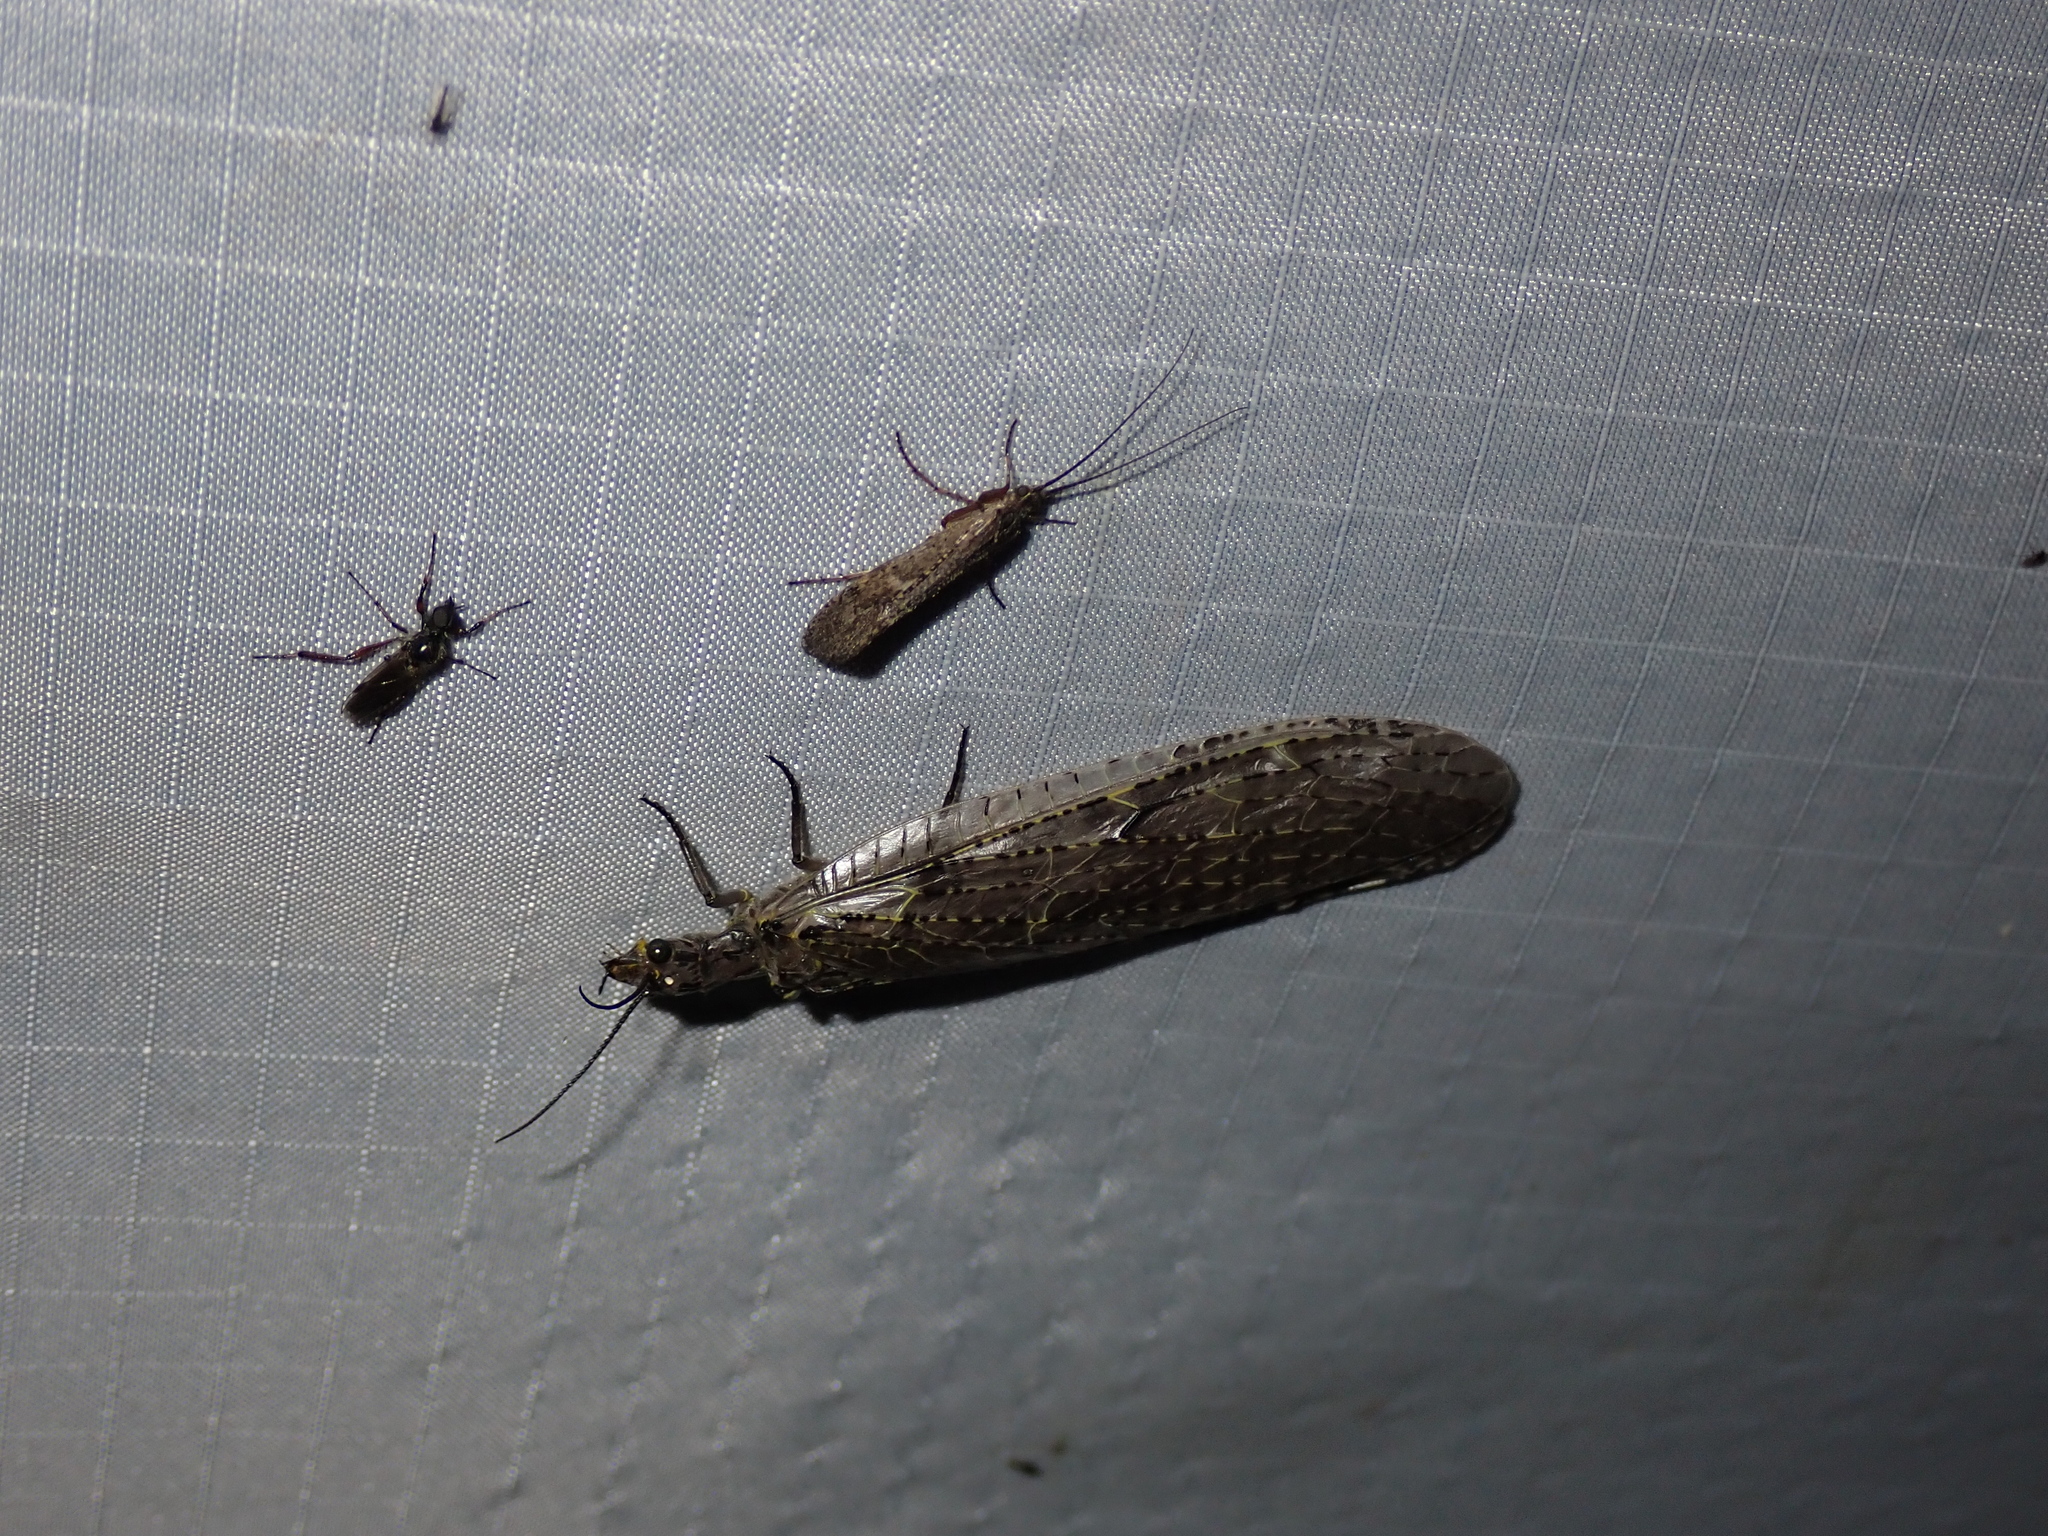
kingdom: Animalia
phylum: Arthropoda
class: Insecta
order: Megaloptera
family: Corydalidae
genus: Chauliodes
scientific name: Chauliodes rastricornis
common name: Spring fishfly
